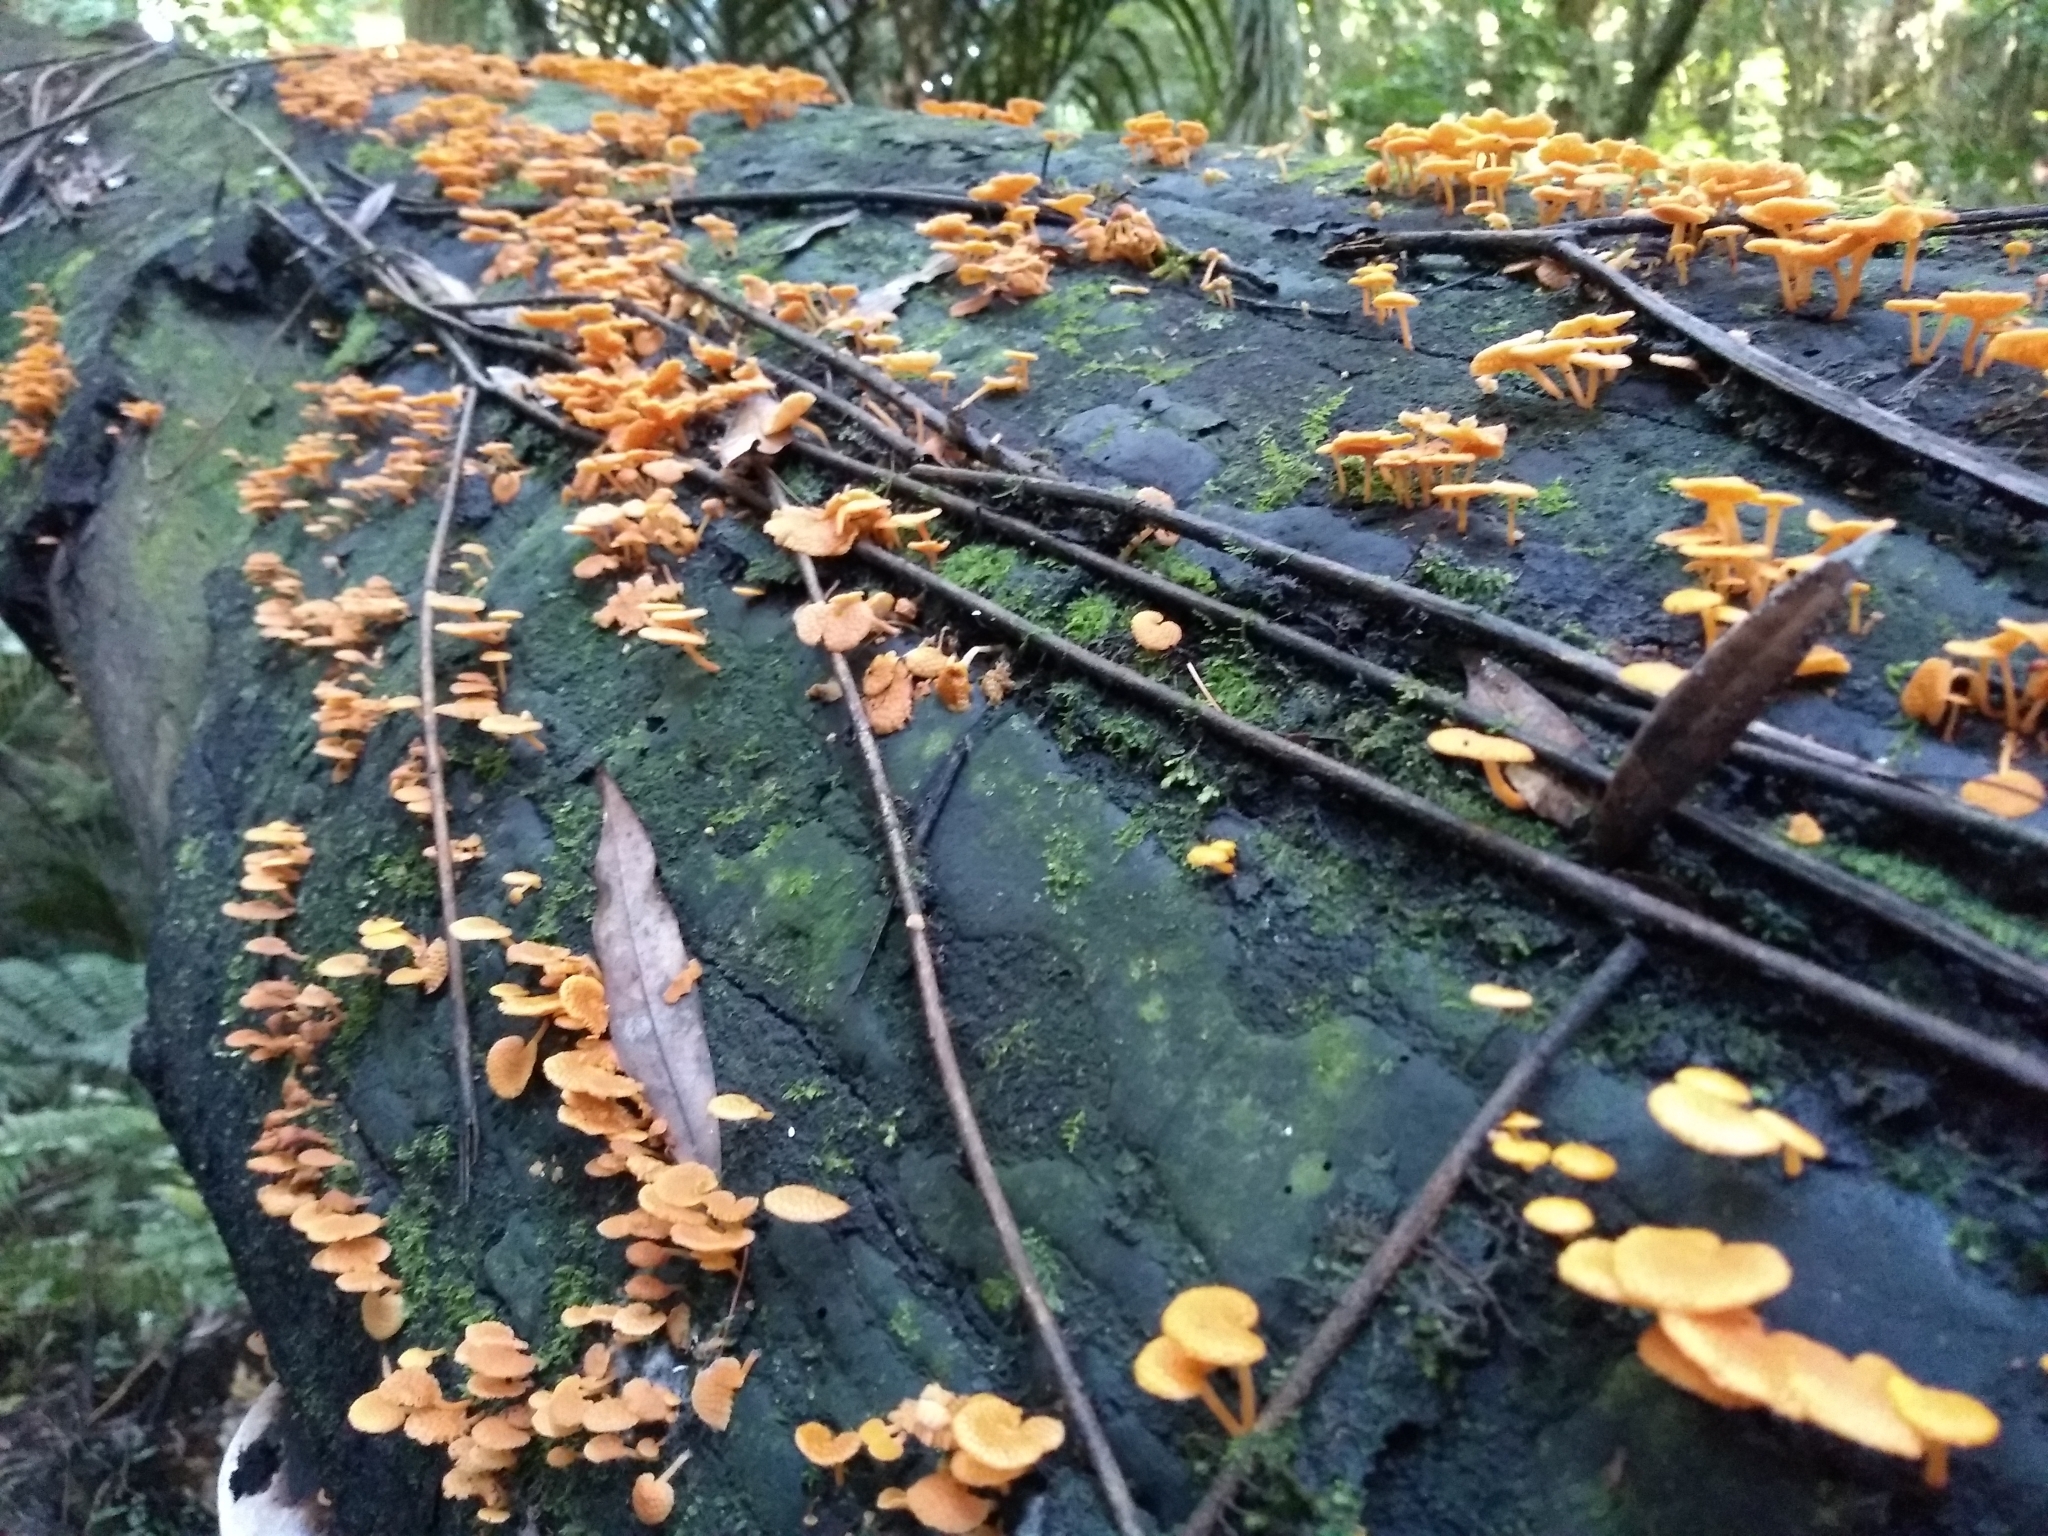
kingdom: Fungi
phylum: Basidiomycota
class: Agaricomycetes
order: Agaricales
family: Mycenaceae
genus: Favolaschia
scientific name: Favolaschia claudopus
